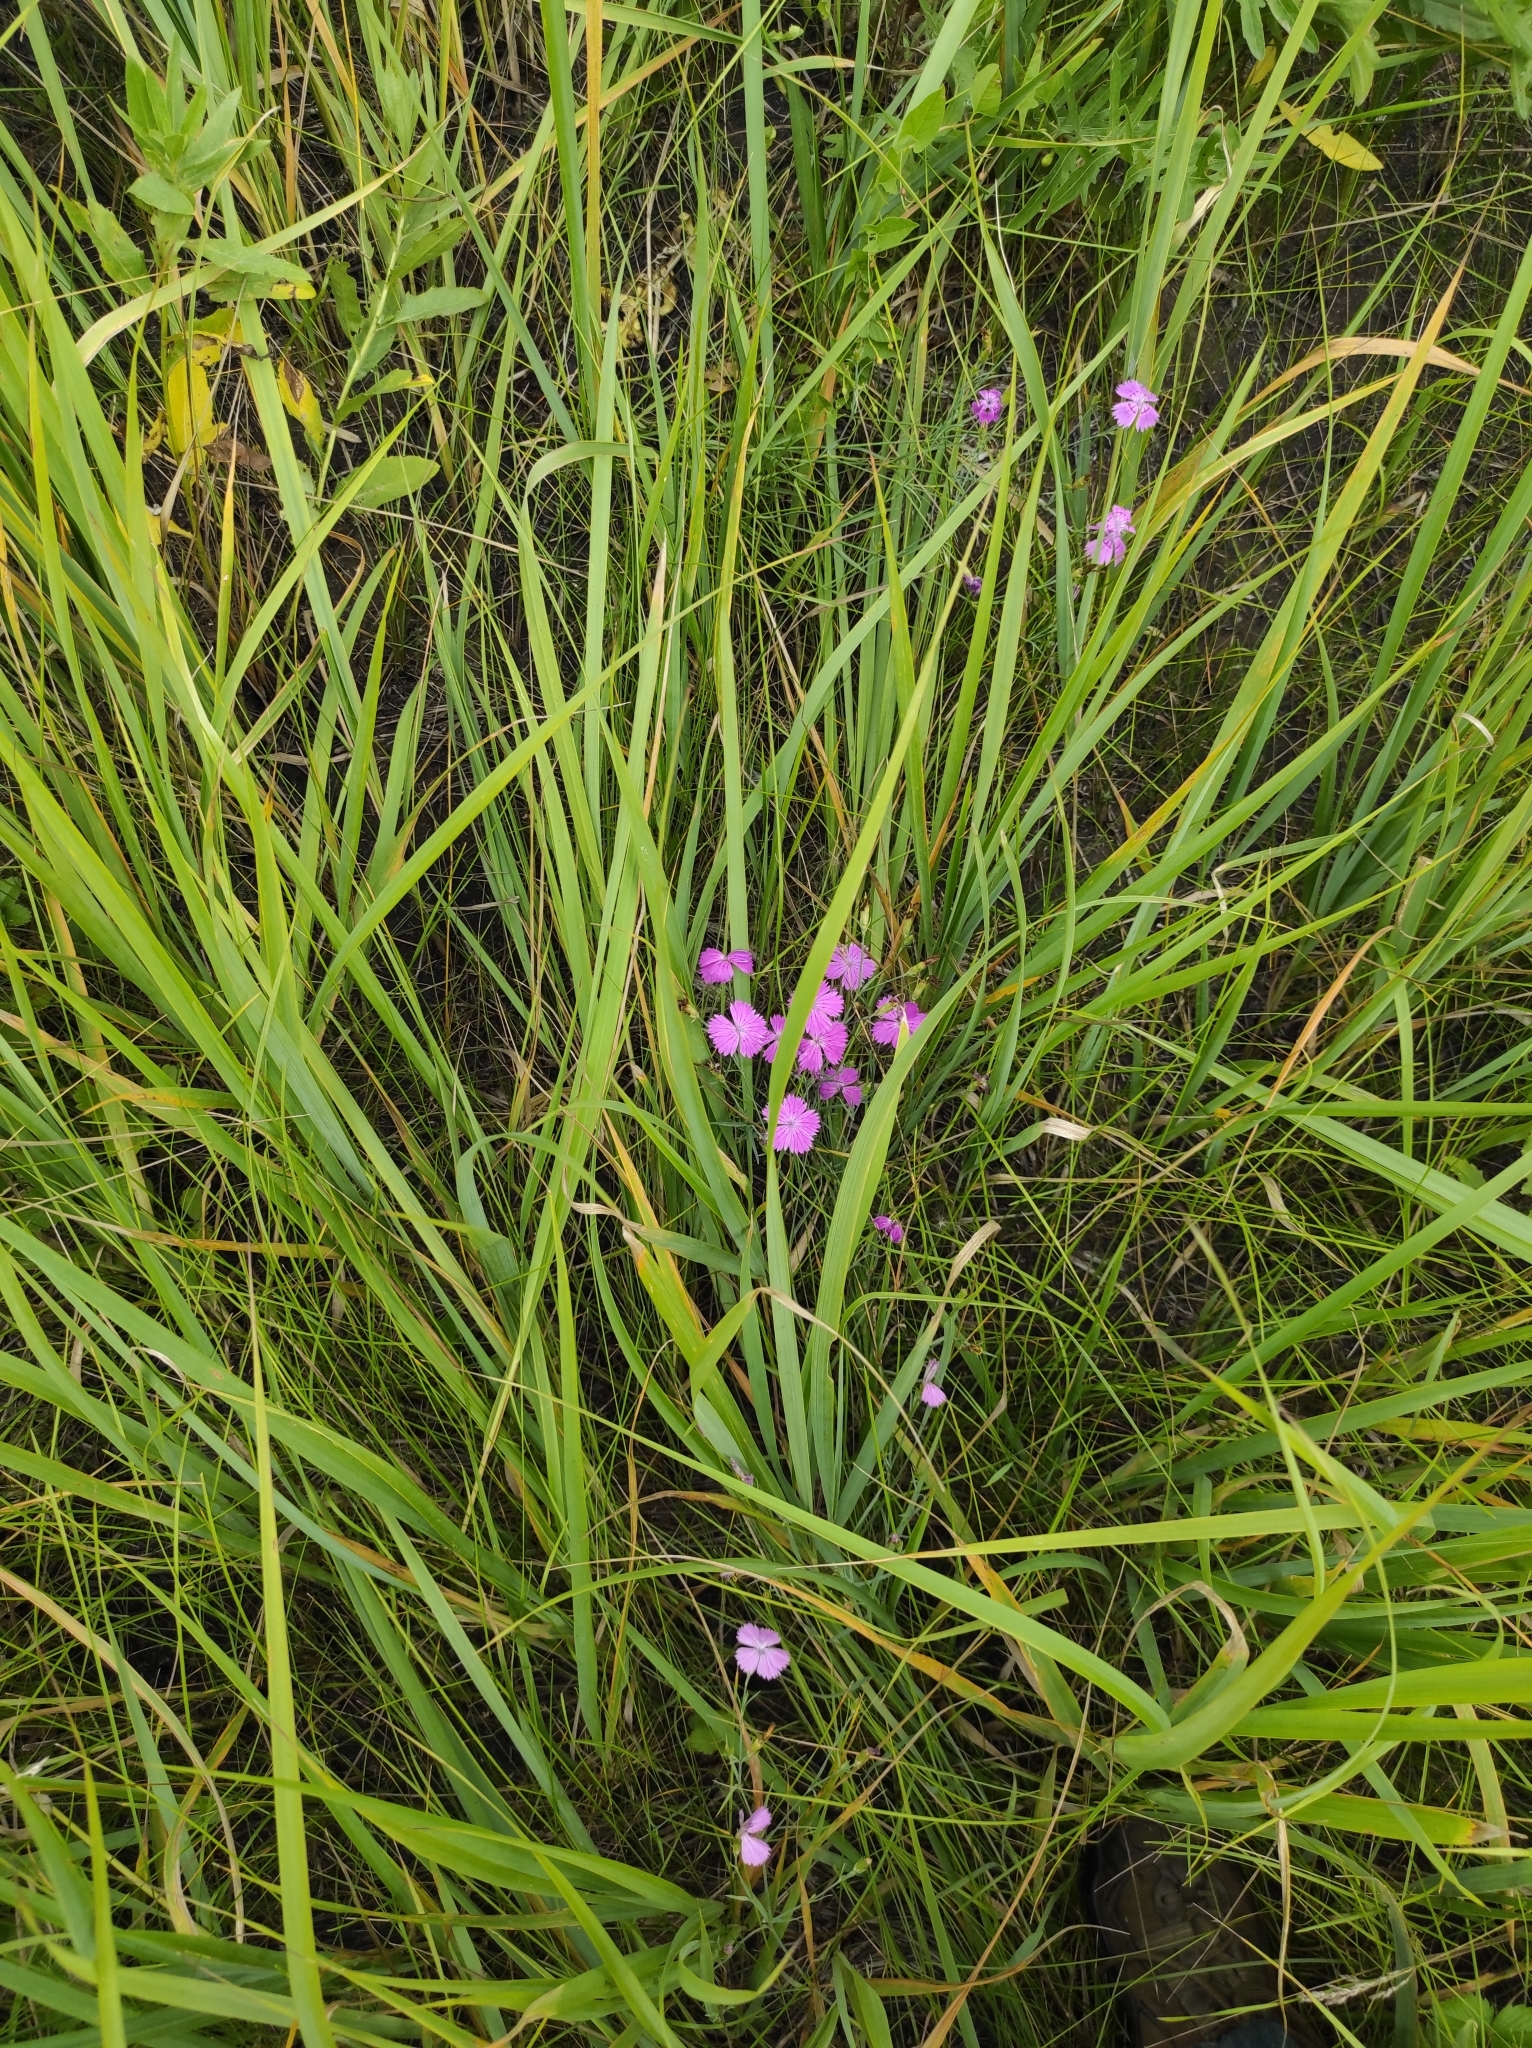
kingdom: Plantae
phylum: Tracheophyta
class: Magnoliopsida
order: Caryophyllales
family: Caryophyllaceae
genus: Dianthus
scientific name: Dianthus chinensis
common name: Rainbow pink
